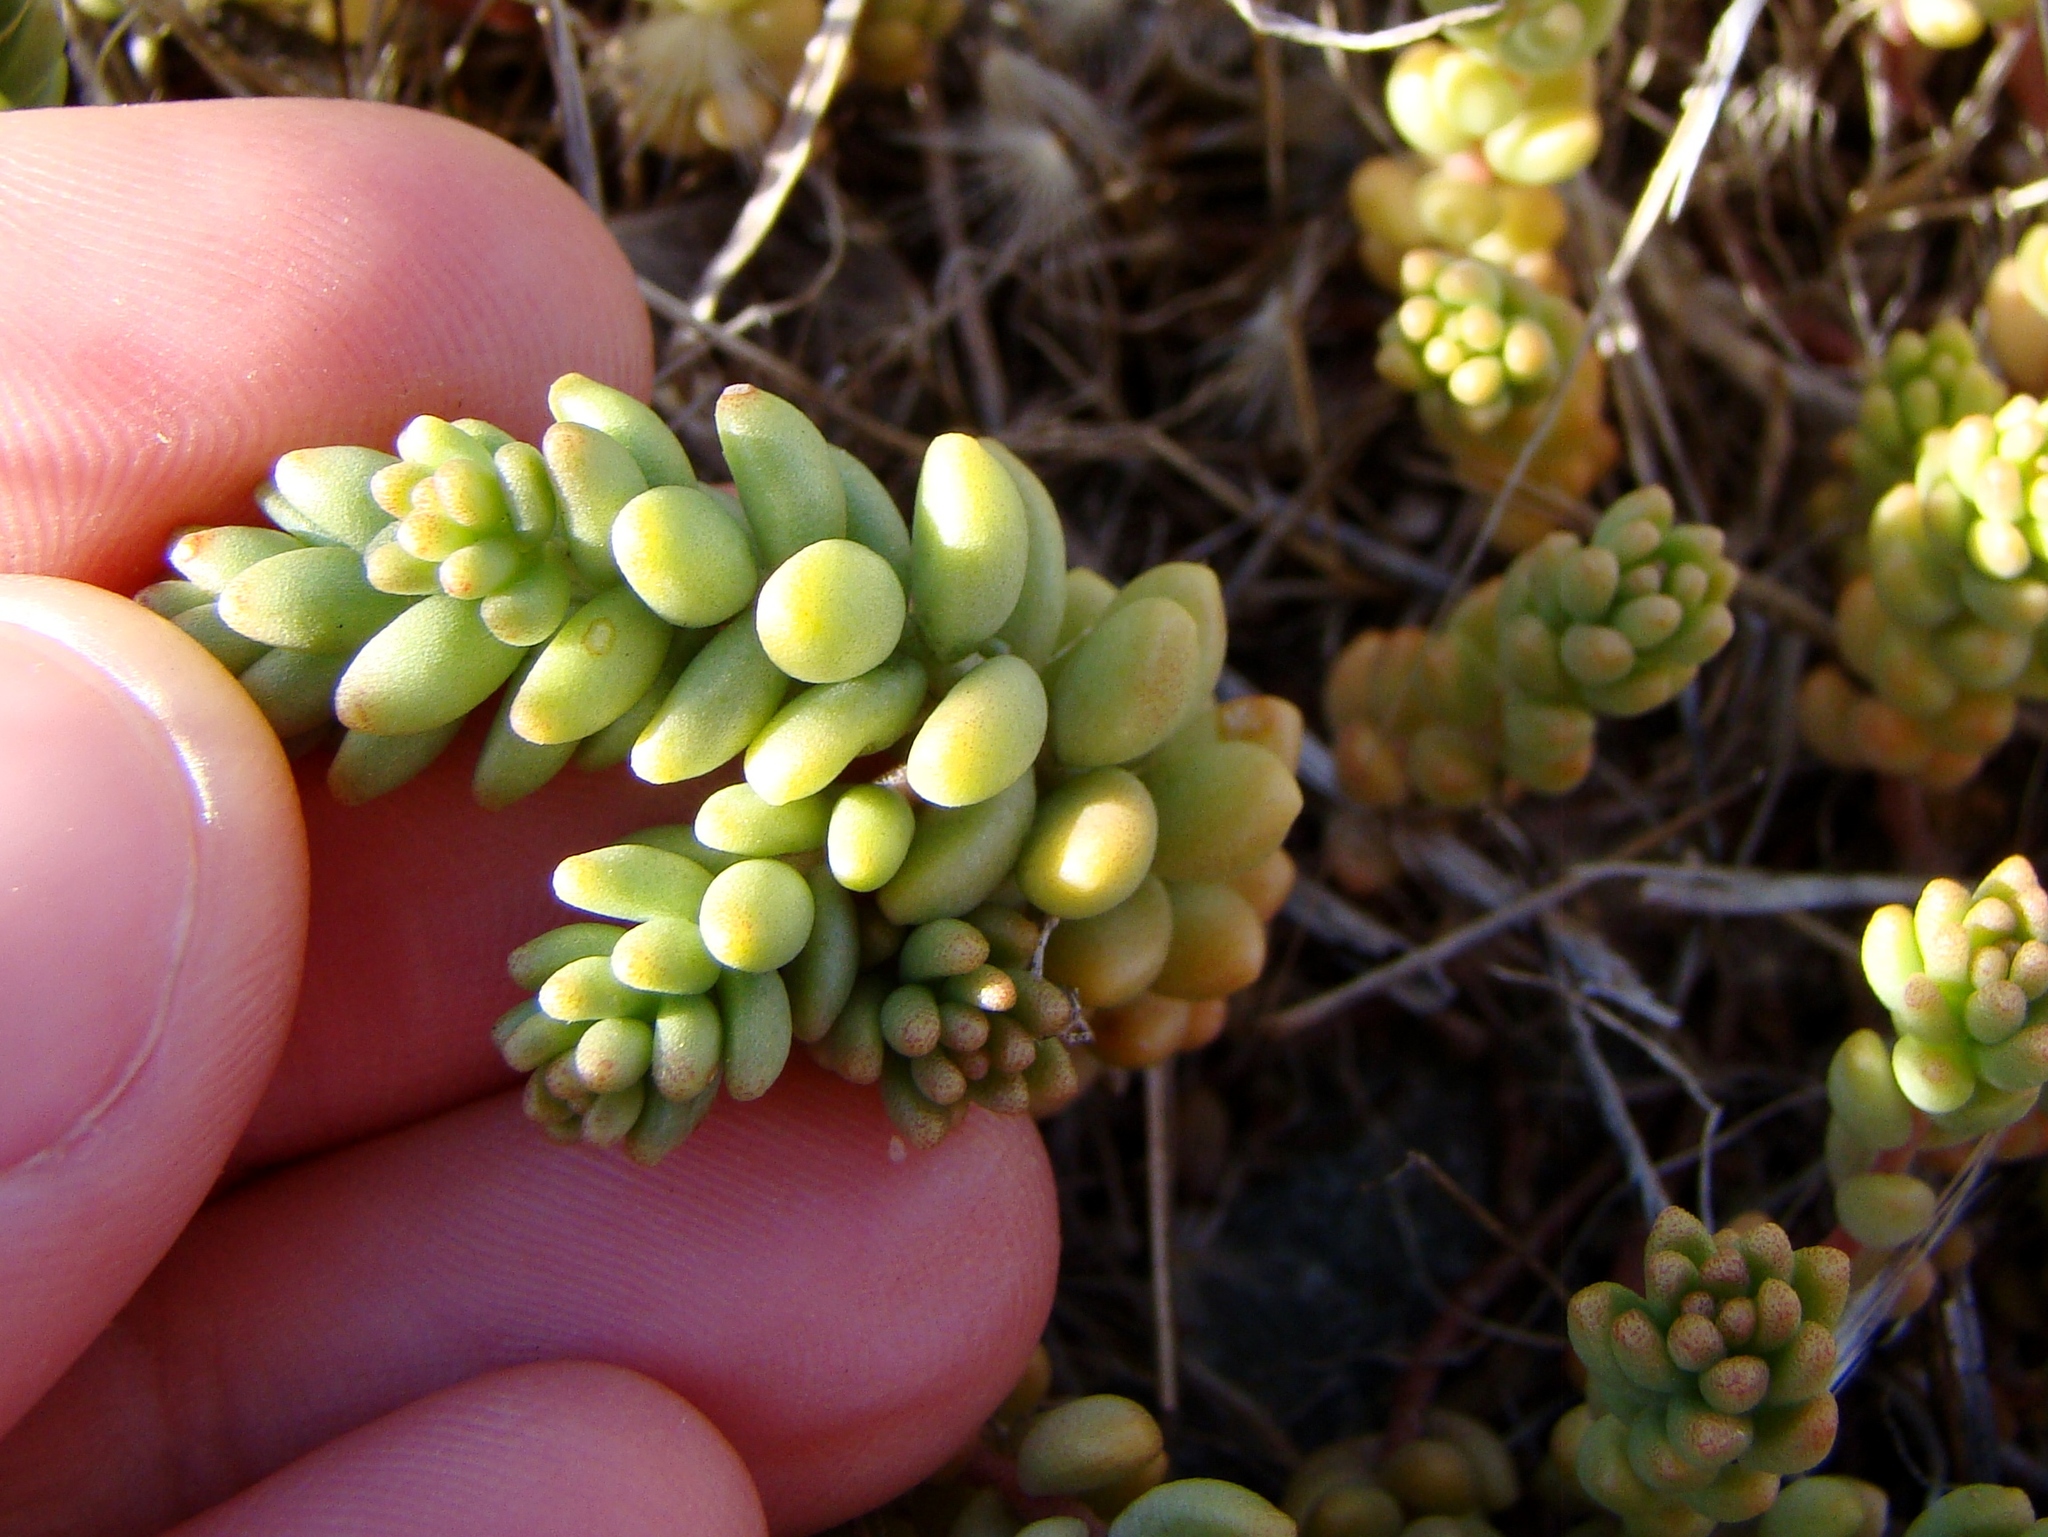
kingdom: Plantae
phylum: Tracheophyta
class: Magnoliopsida
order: Saxifragales
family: Crassulaceae
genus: Sedum
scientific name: Sedum album
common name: White stonecrop
